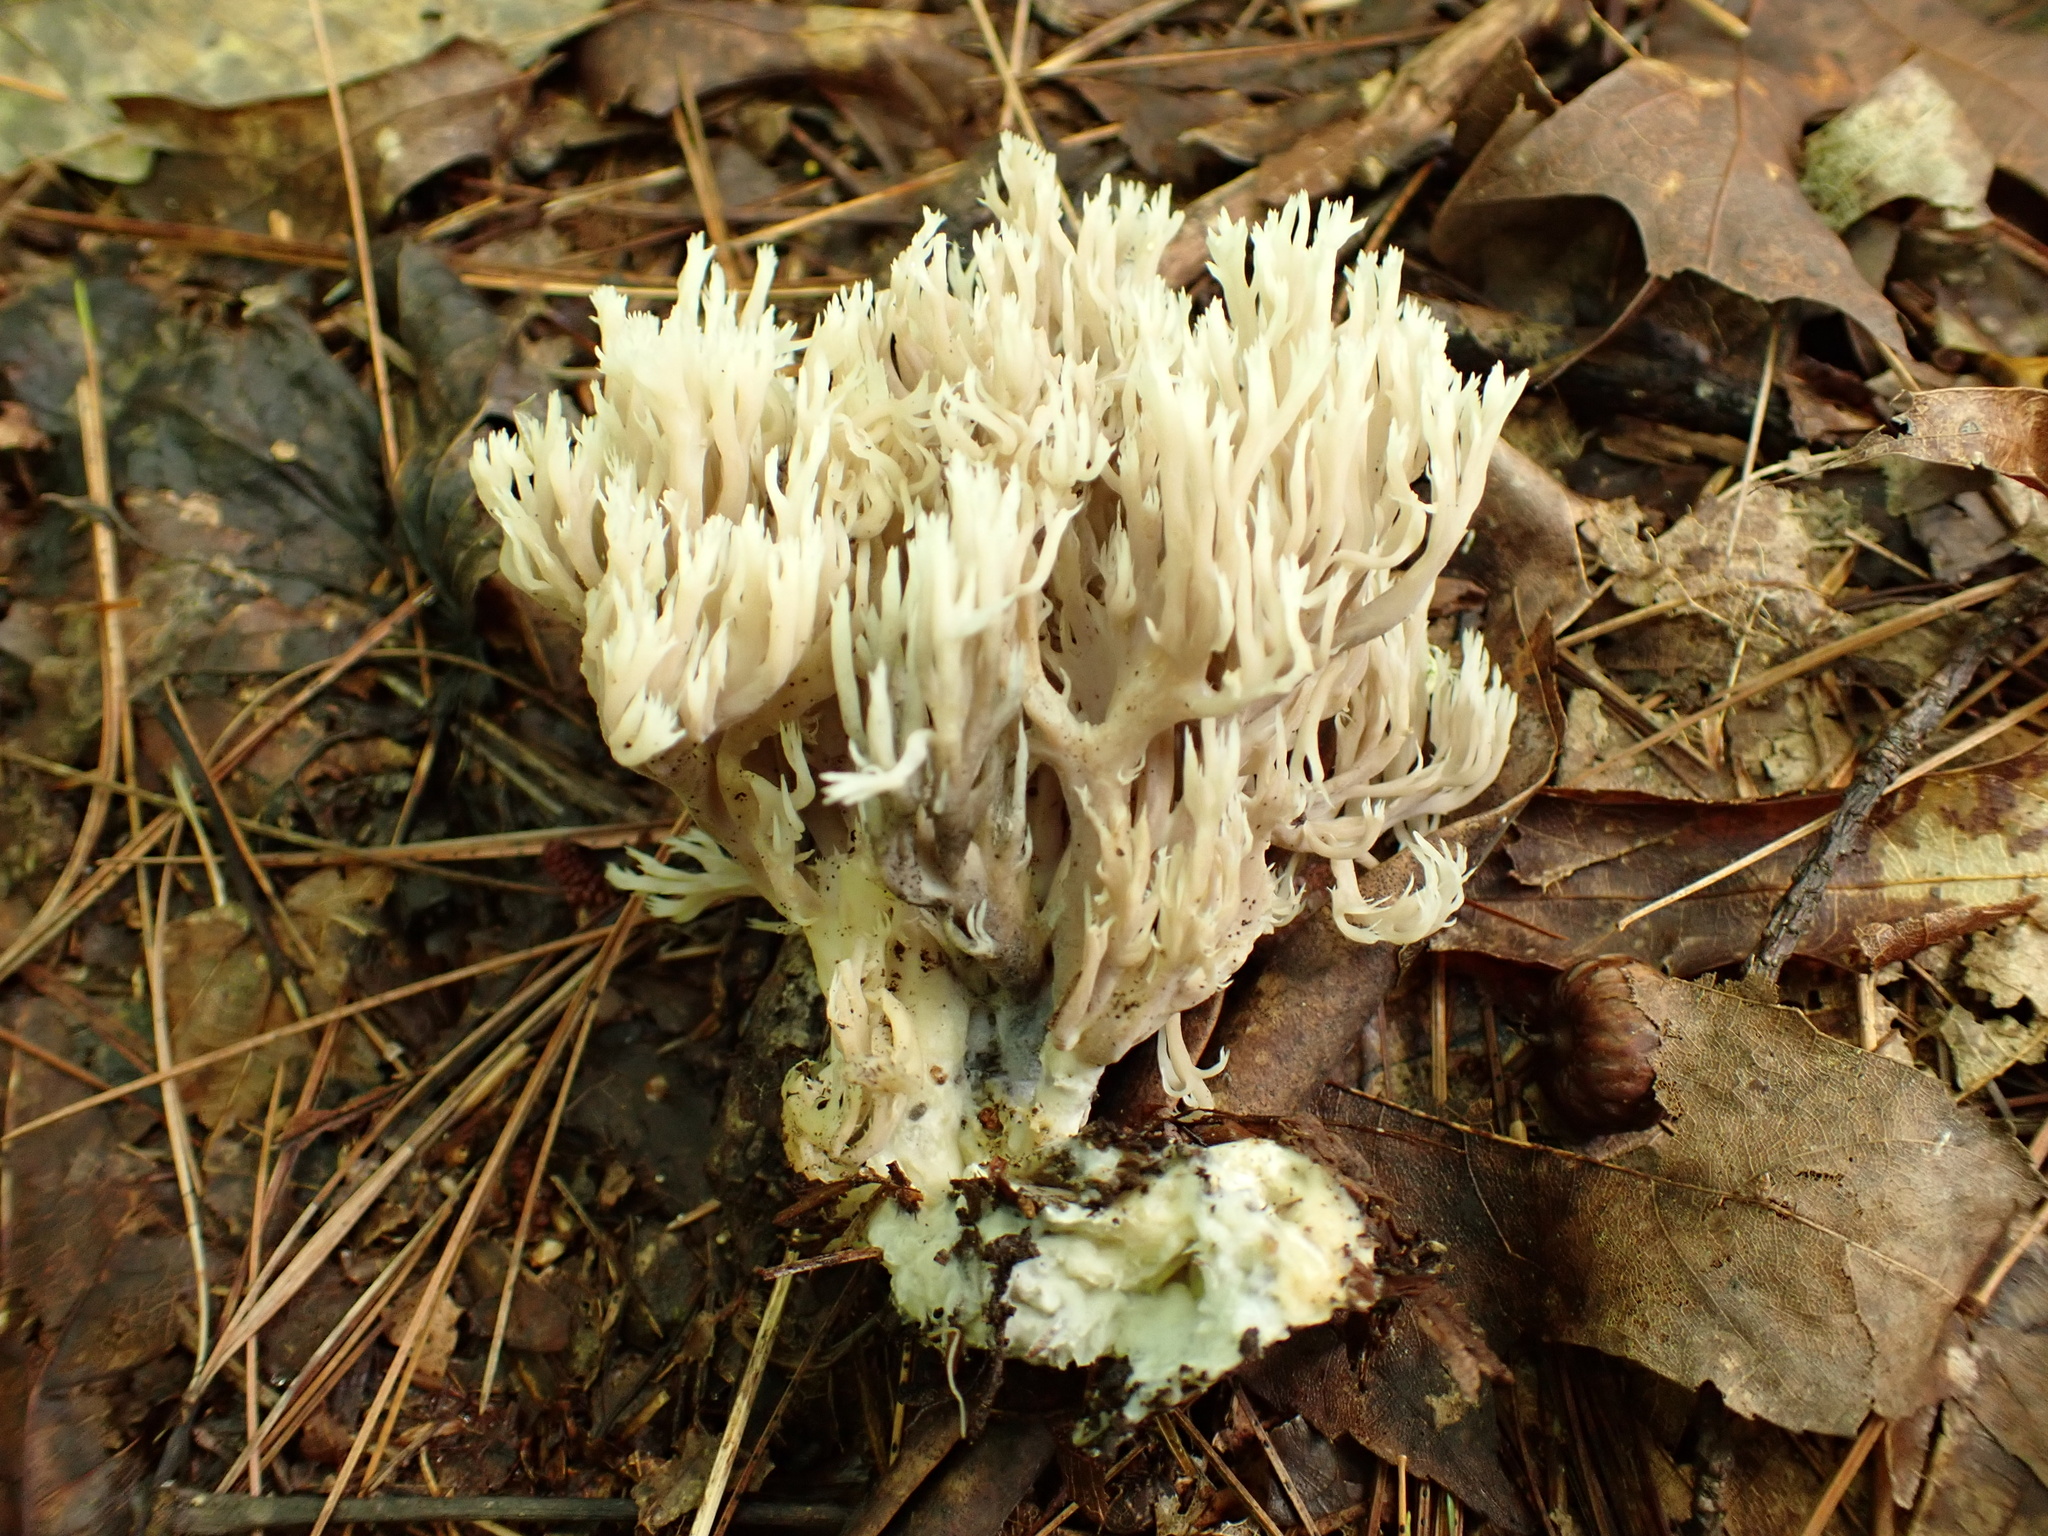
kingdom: Fungi
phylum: Basidiomycota
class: Agaricomycetes
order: Cantharellales
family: Hydnaceae
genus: Clavulina
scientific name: Clavulina coralloides
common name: Crested coral
